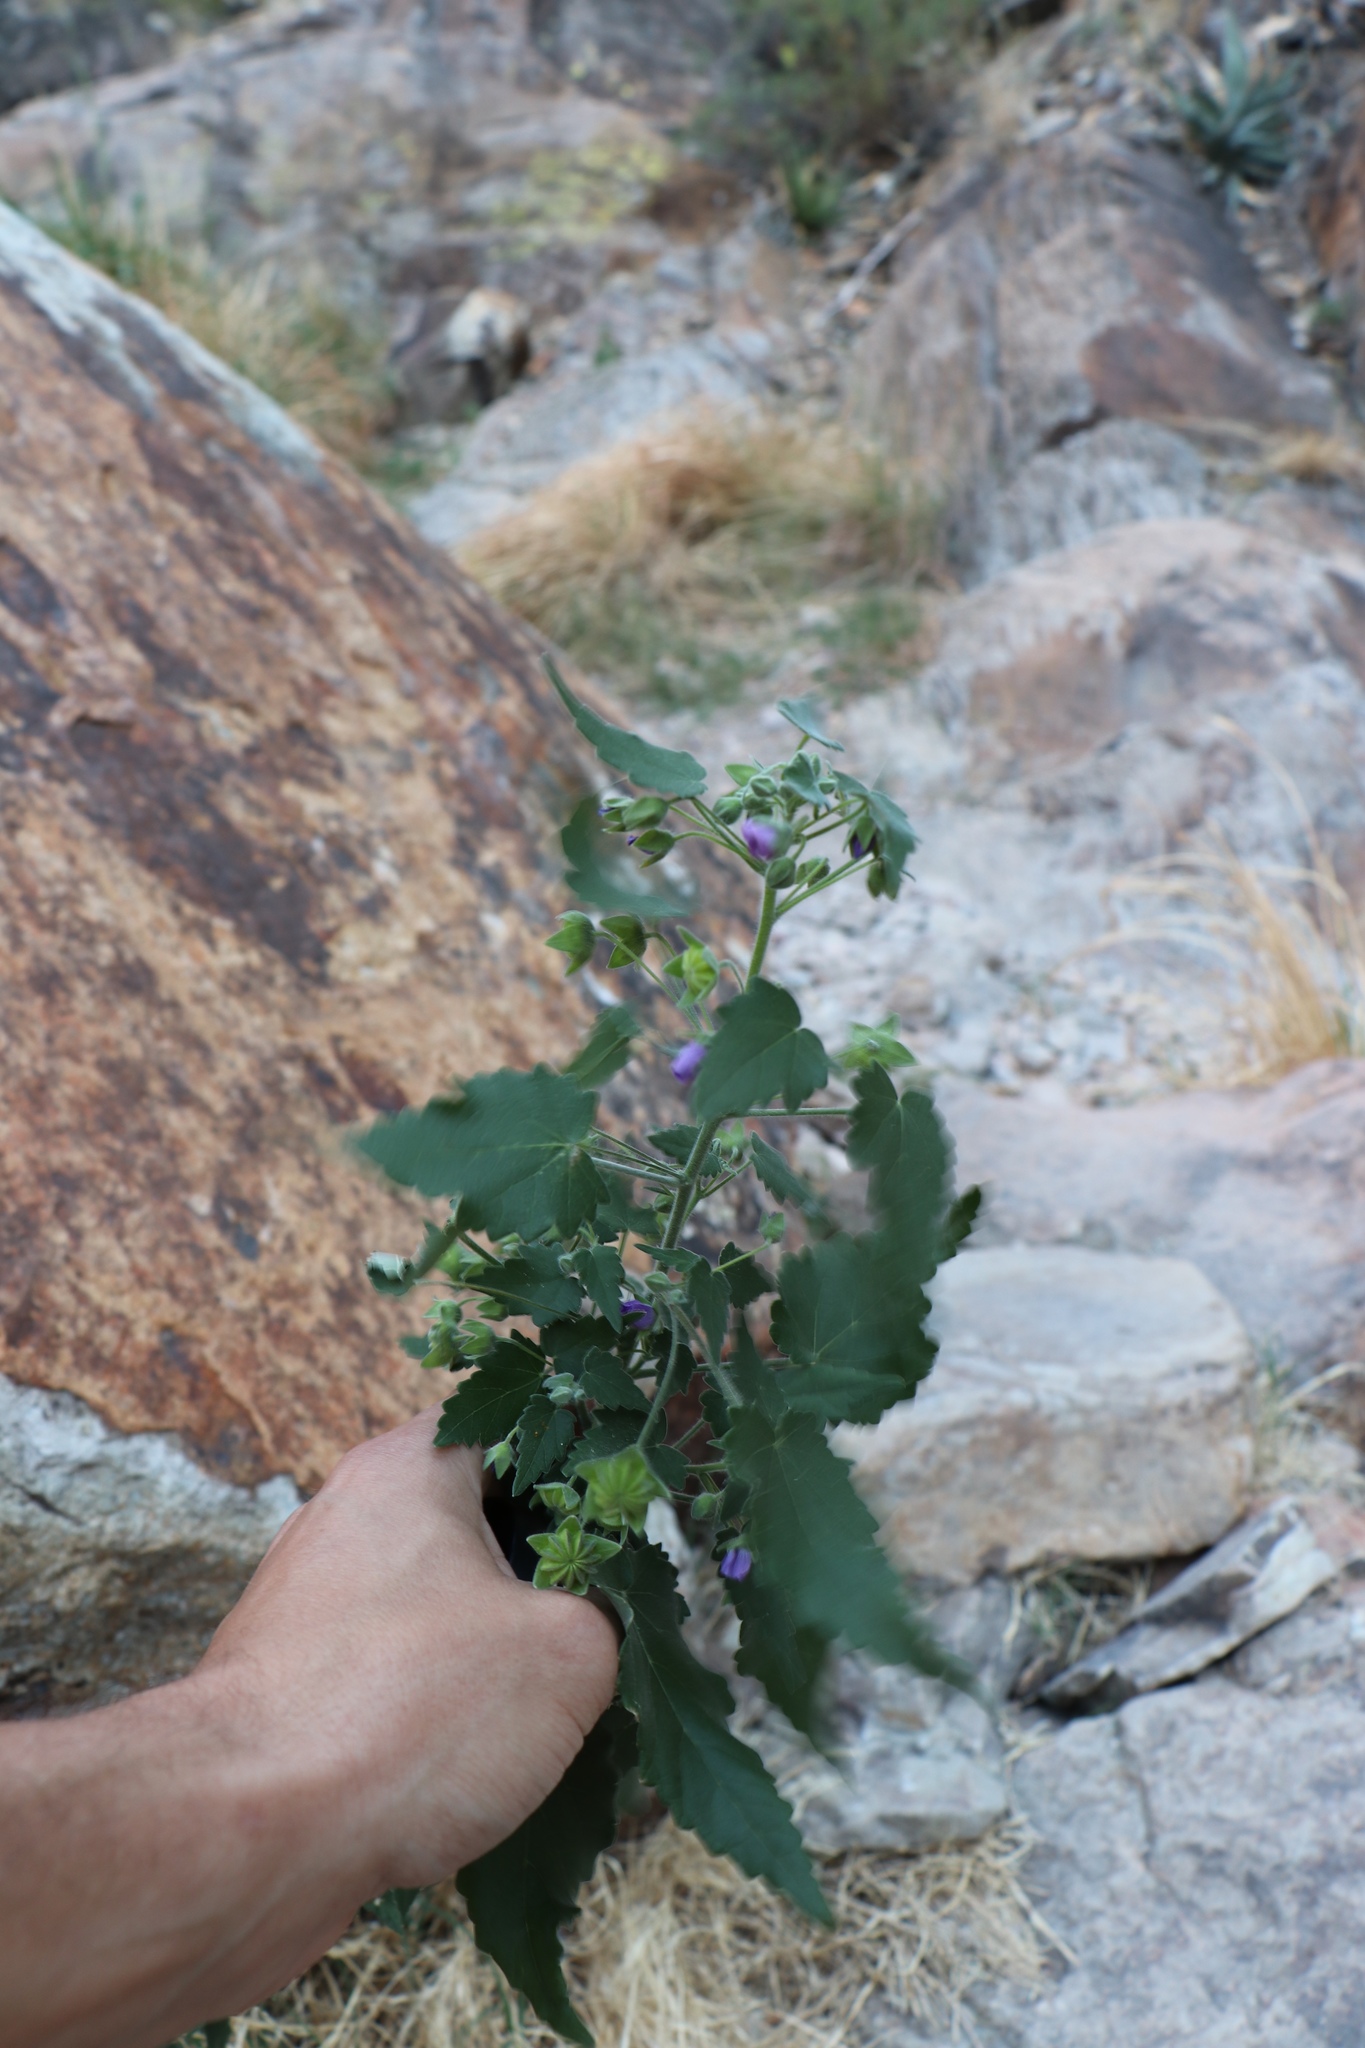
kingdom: Plantae
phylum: Tracheophyta
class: Magnoliopsida
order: Malvales
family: Malvaceae
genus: Batesimalva
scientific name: Batesimalva violacea
